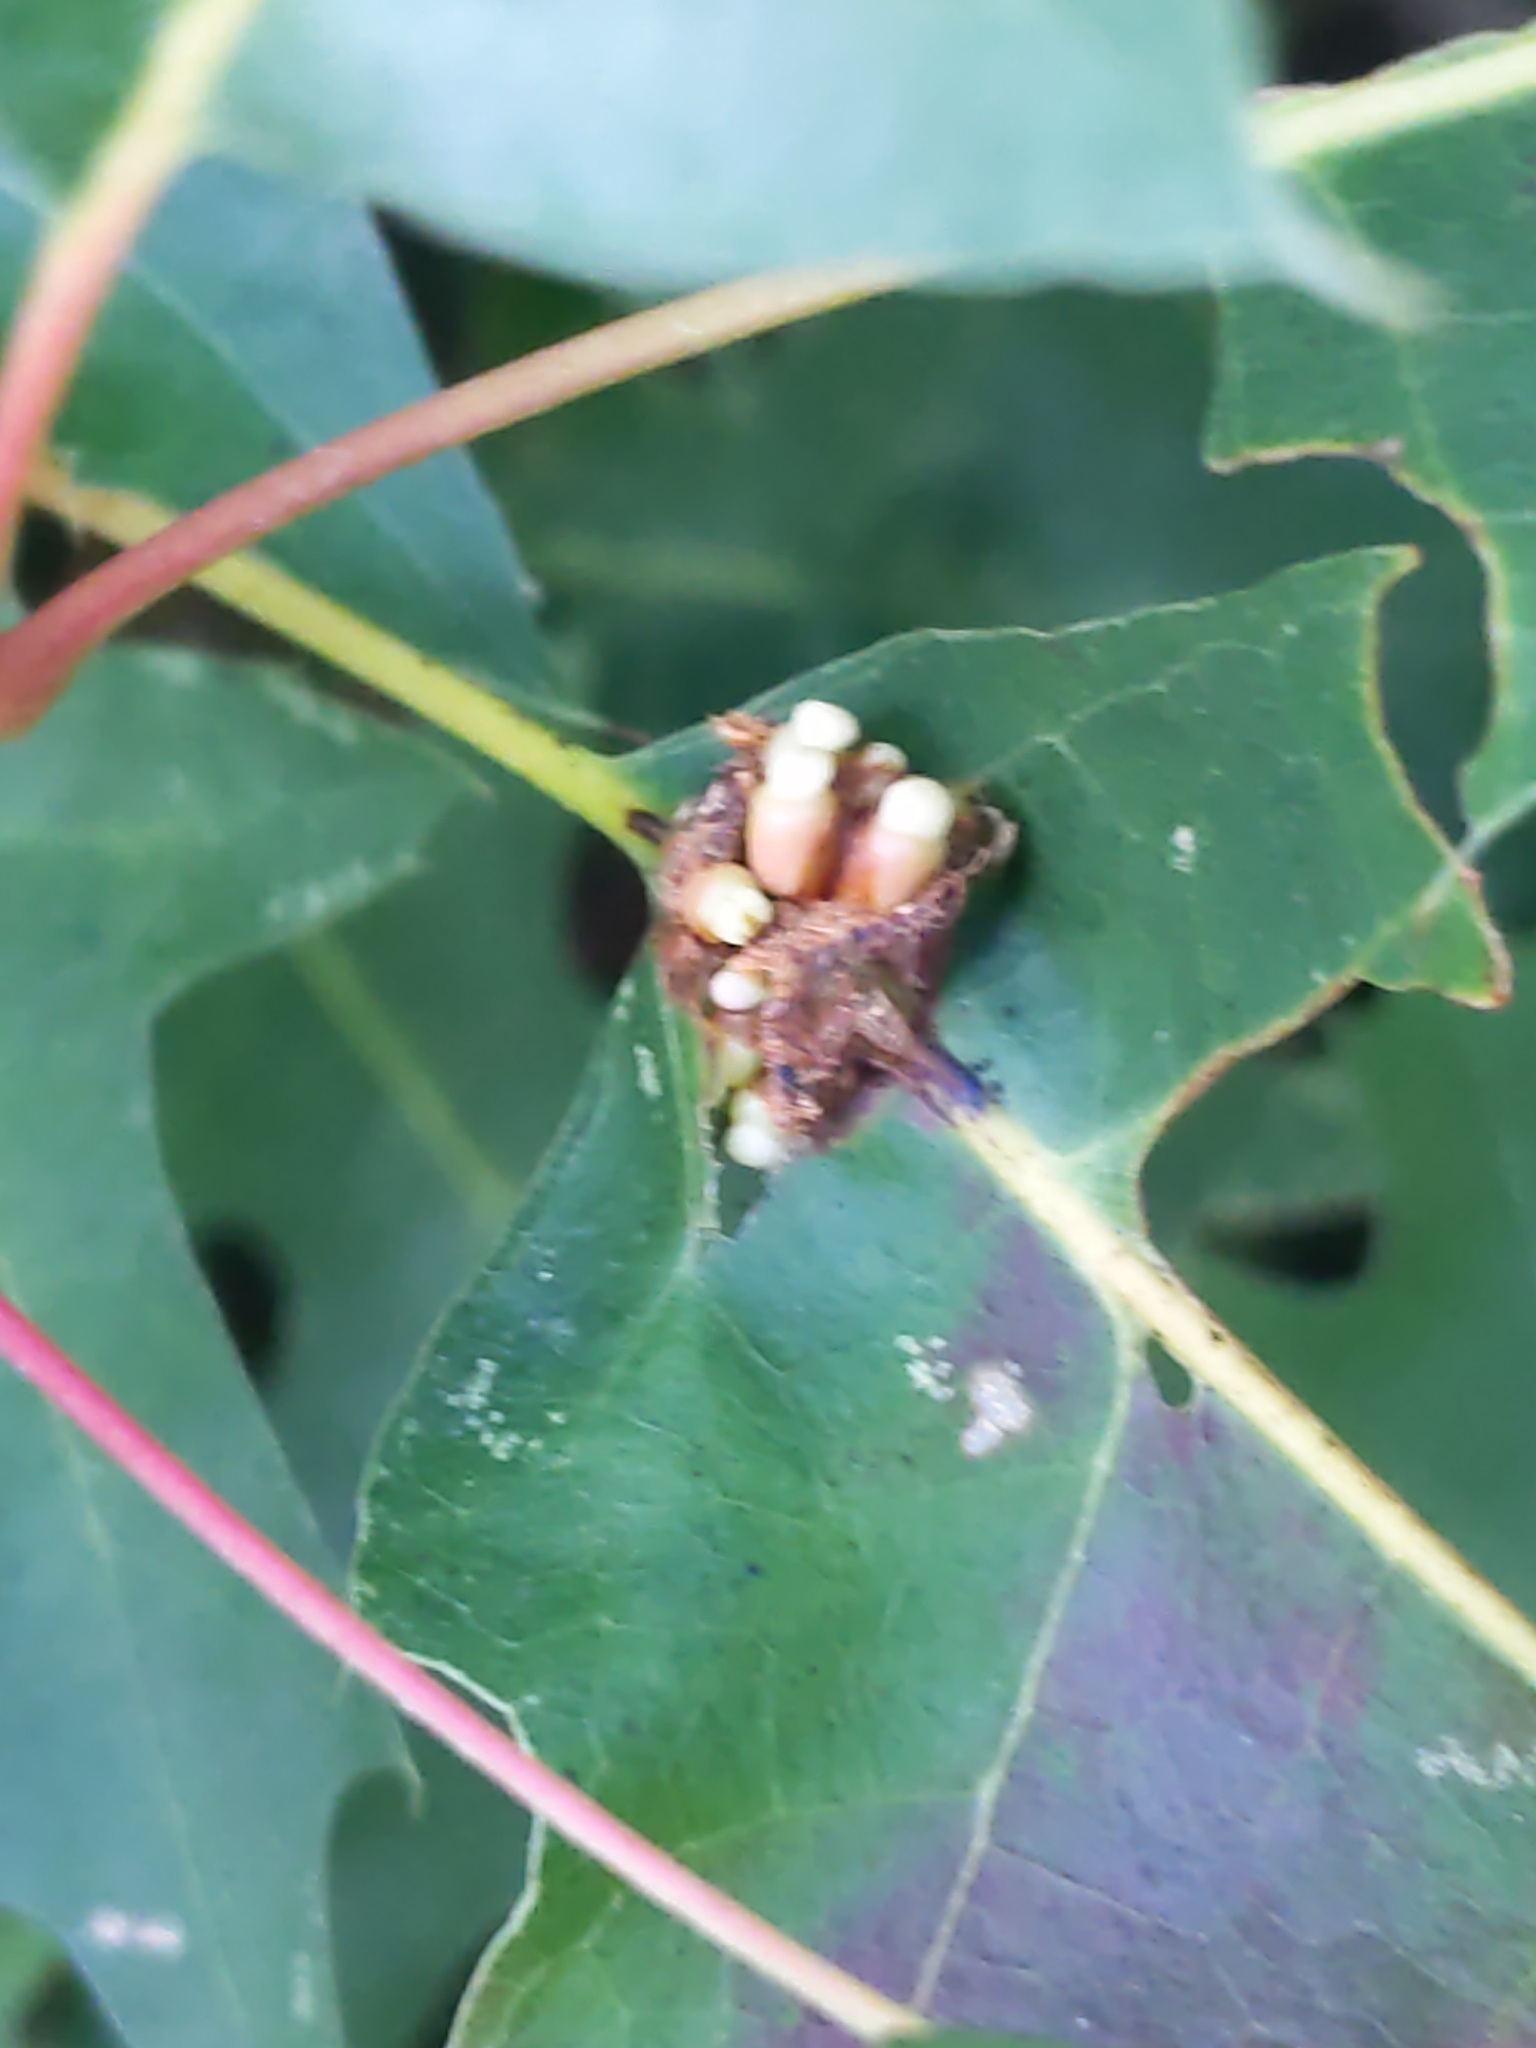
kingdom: Animalia
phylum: Arthropoda
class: Insecta
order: Hymenoptera
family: Cynipidae
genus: Kokkocynips
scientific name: Kokkocynips decidua
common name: Oak wheat gall
